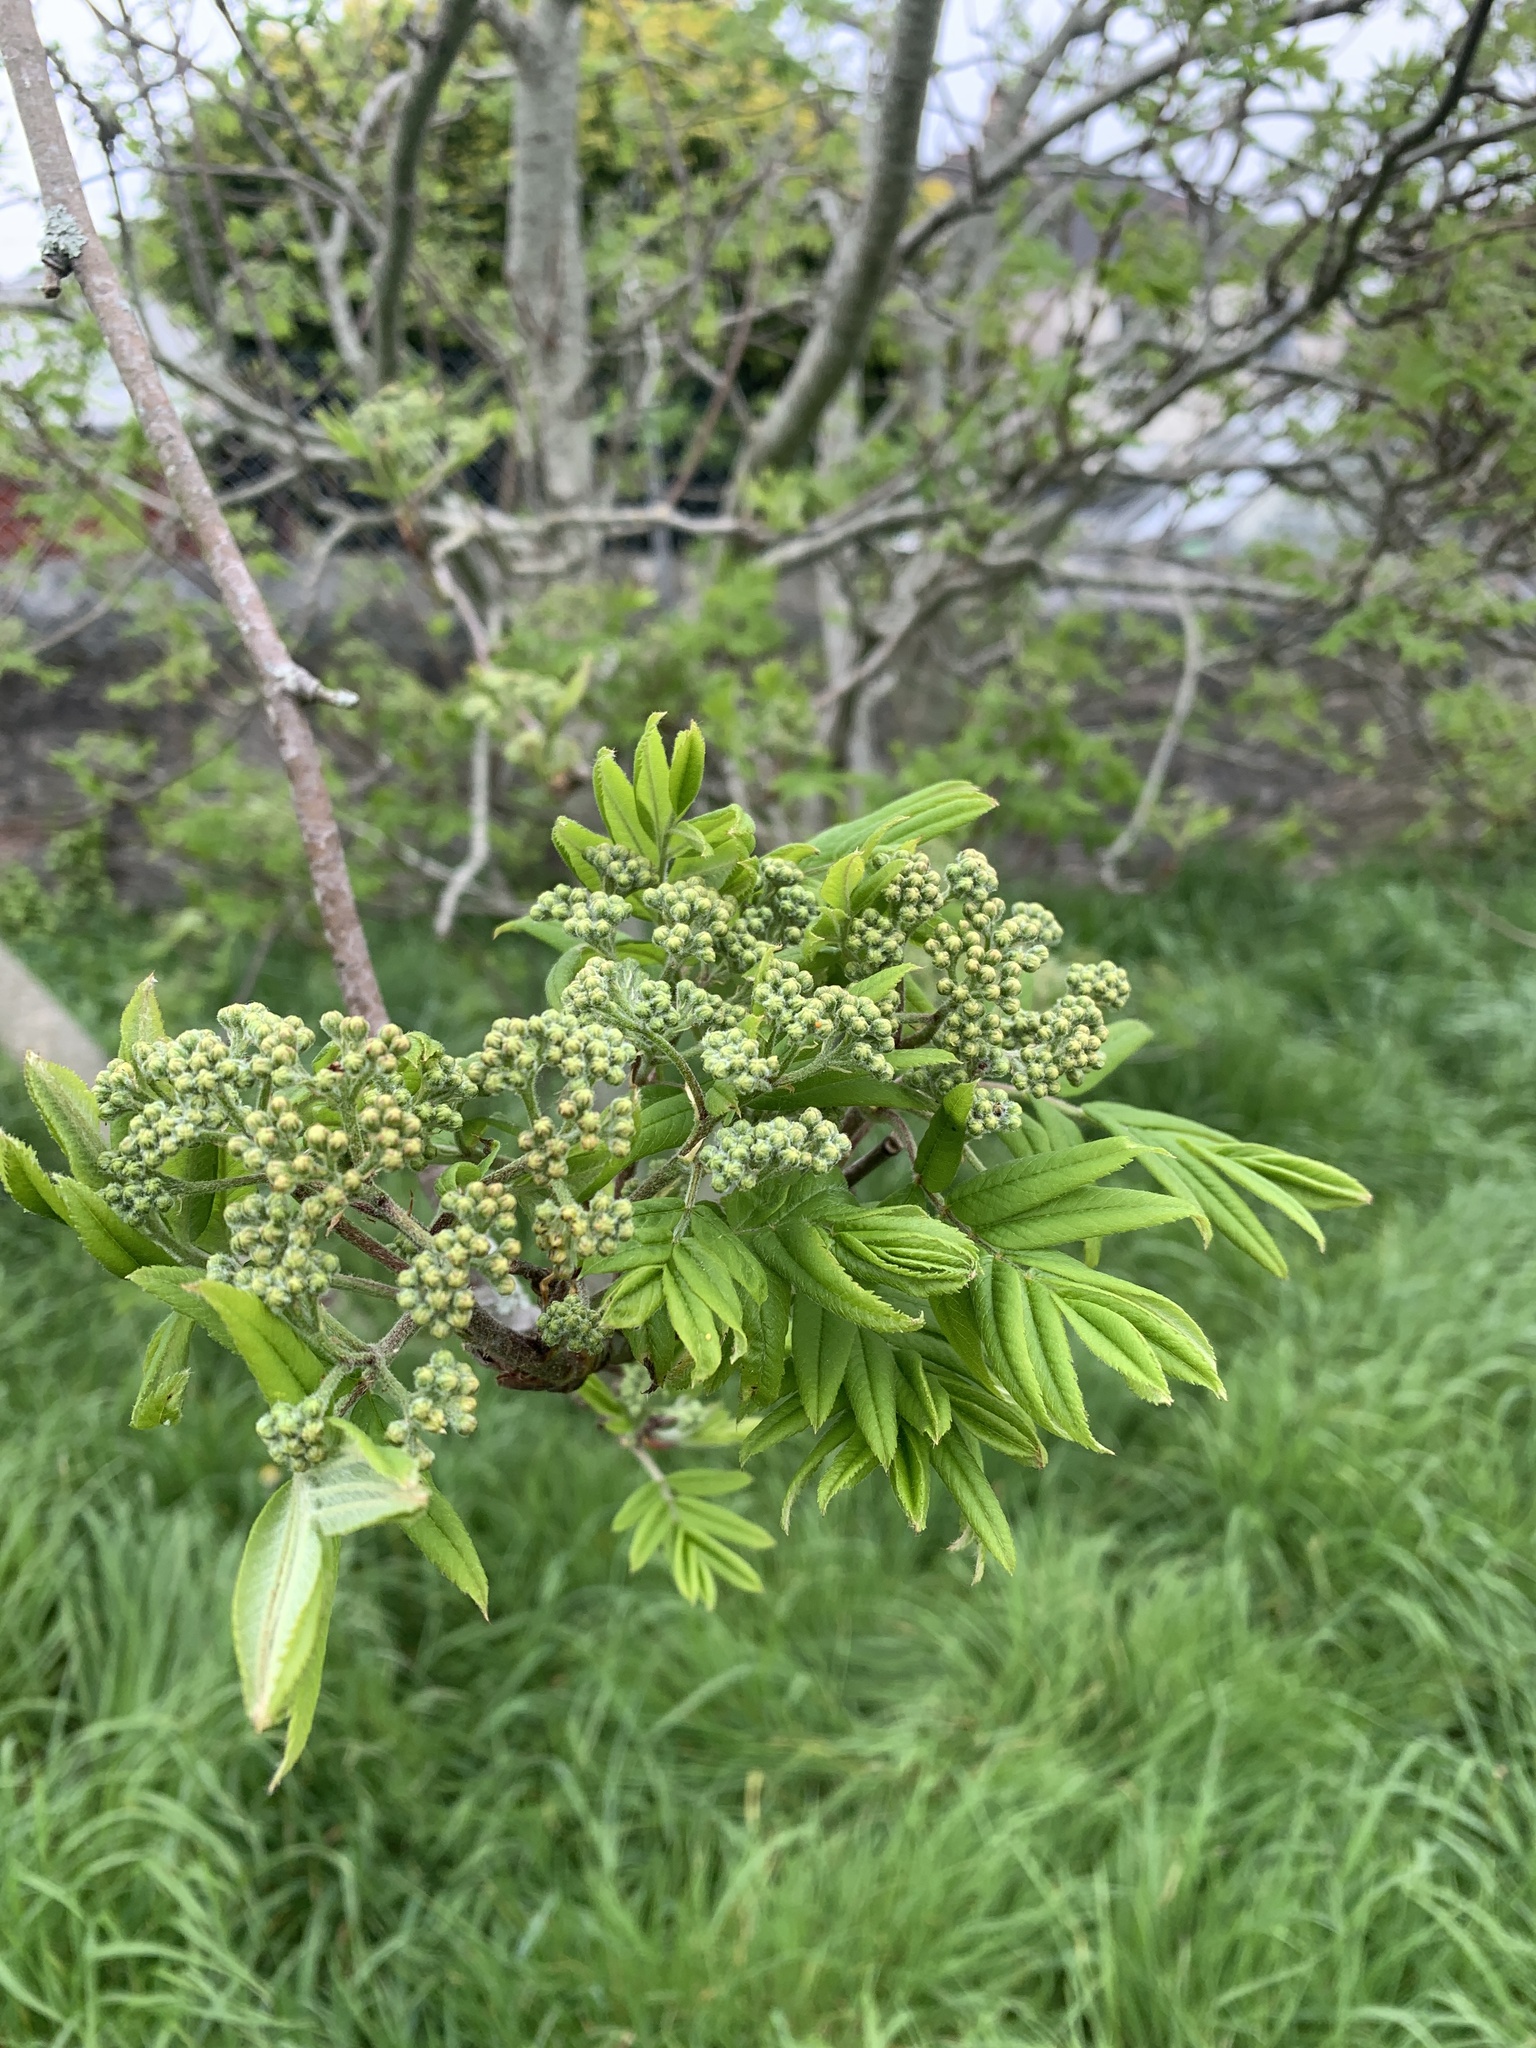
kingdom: Plantae
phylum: Tracheophyta
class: Magnoliopsida
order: Rosales
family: Rosaceae
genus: Sorbus
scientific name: Sorbus aucuparia
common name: Rowan
